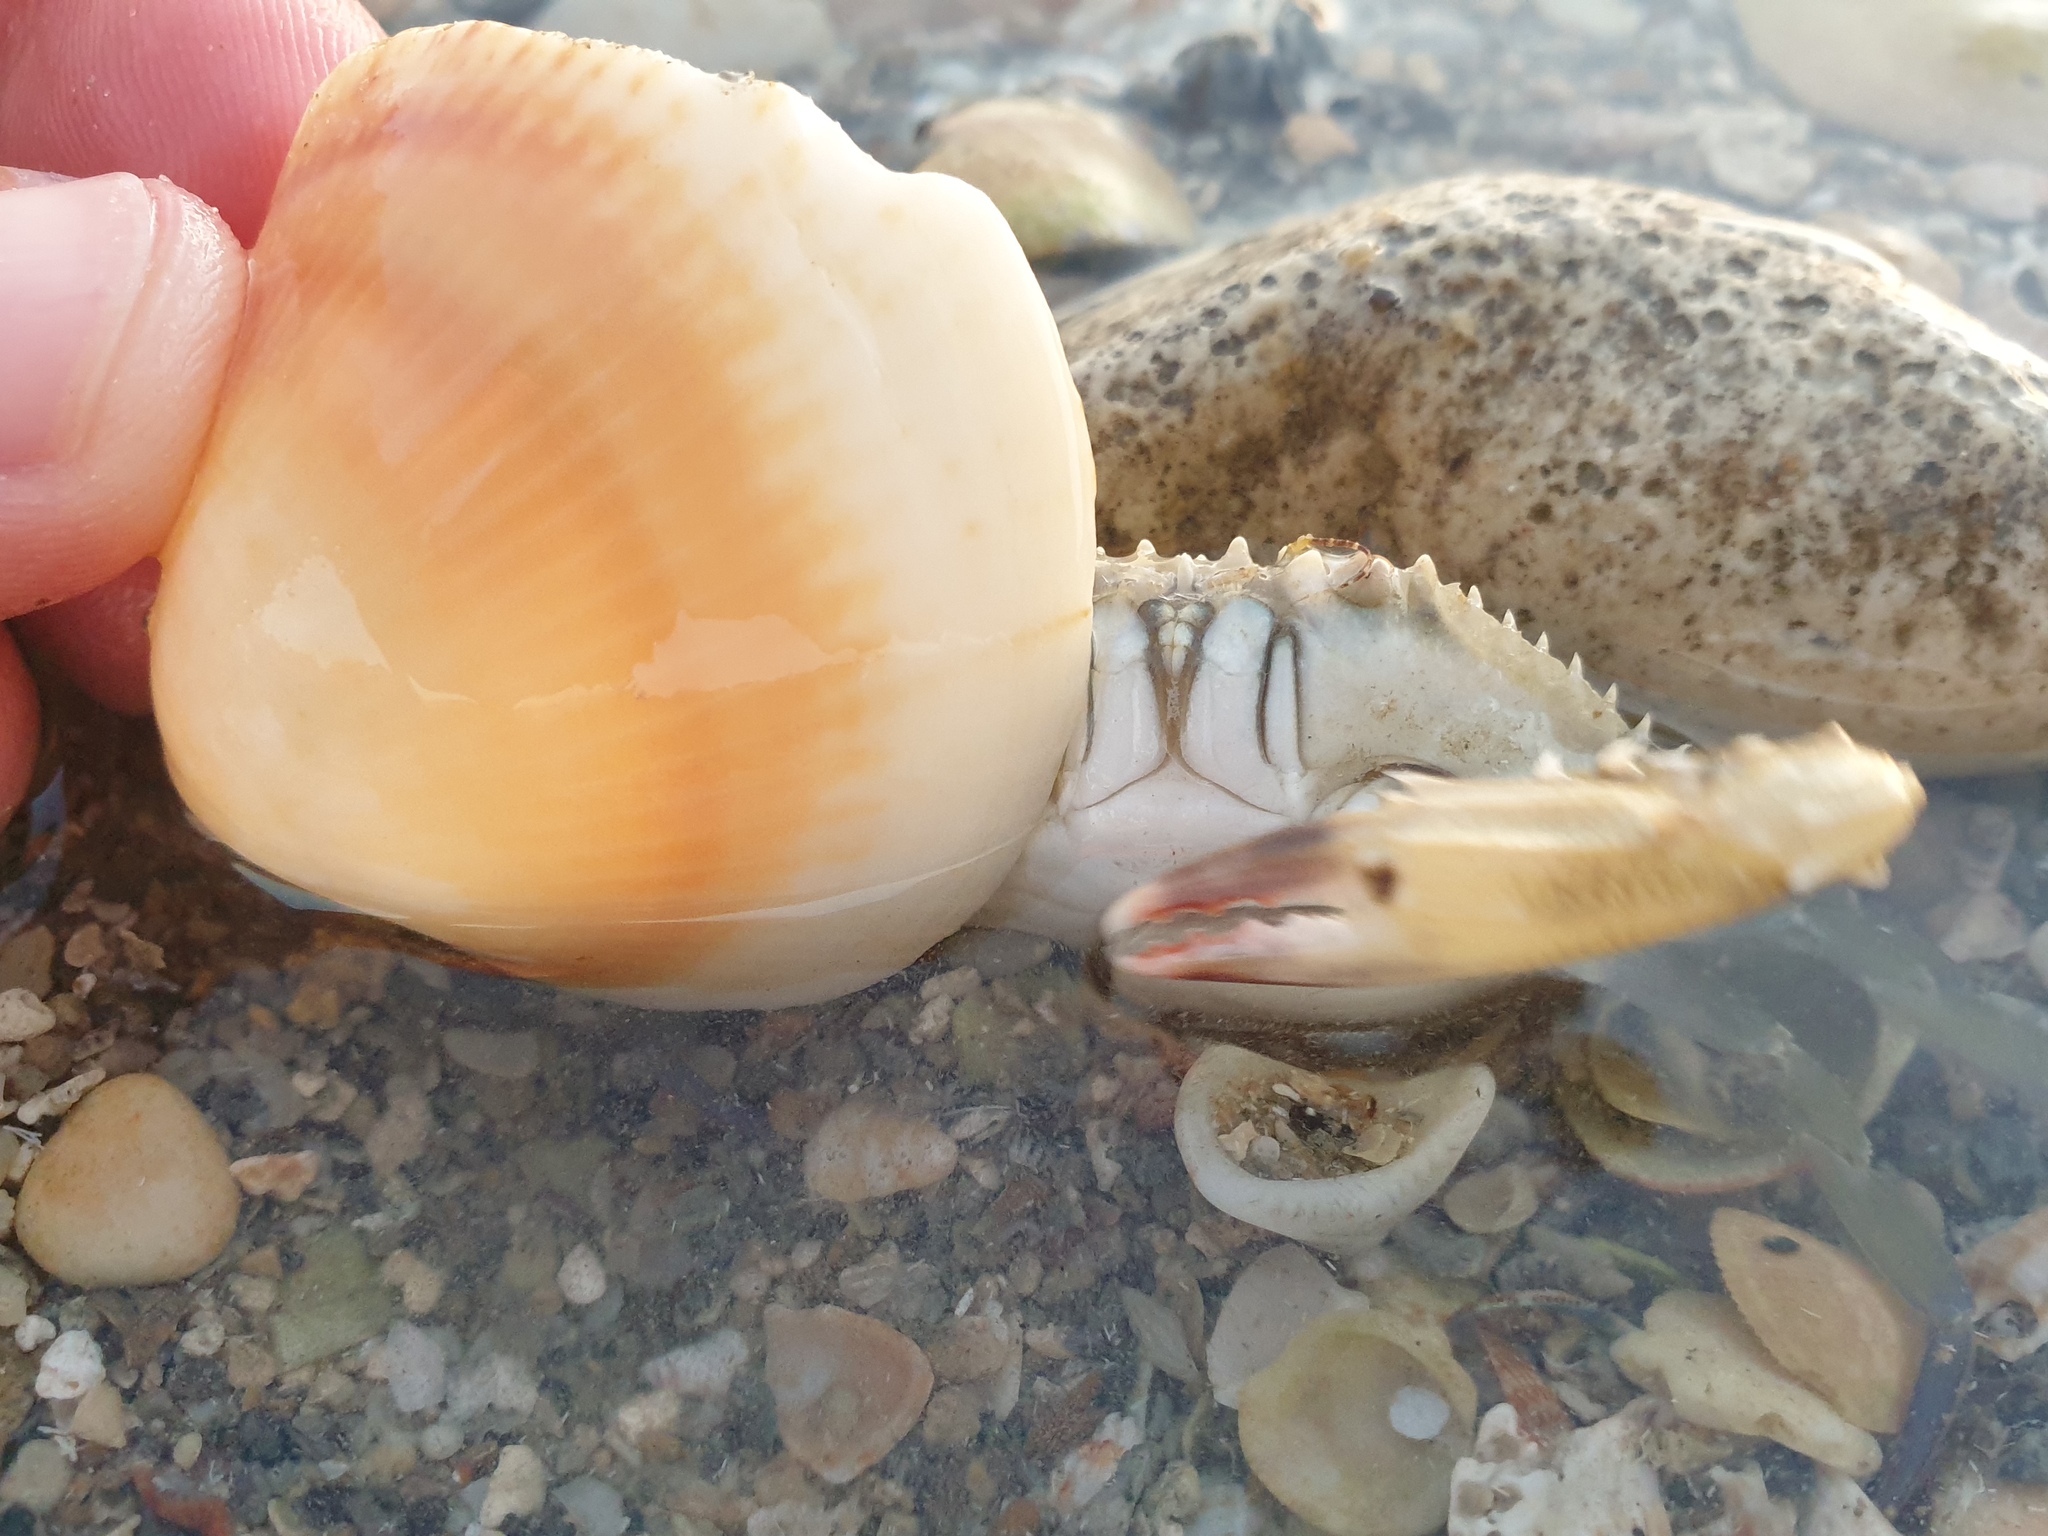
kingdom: Animalia
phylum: Arthropoda
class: Malacostraca
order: Decapoda
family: Portunidae
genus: Callinectes
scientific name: Callinectes sapidus
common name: Blue crab
